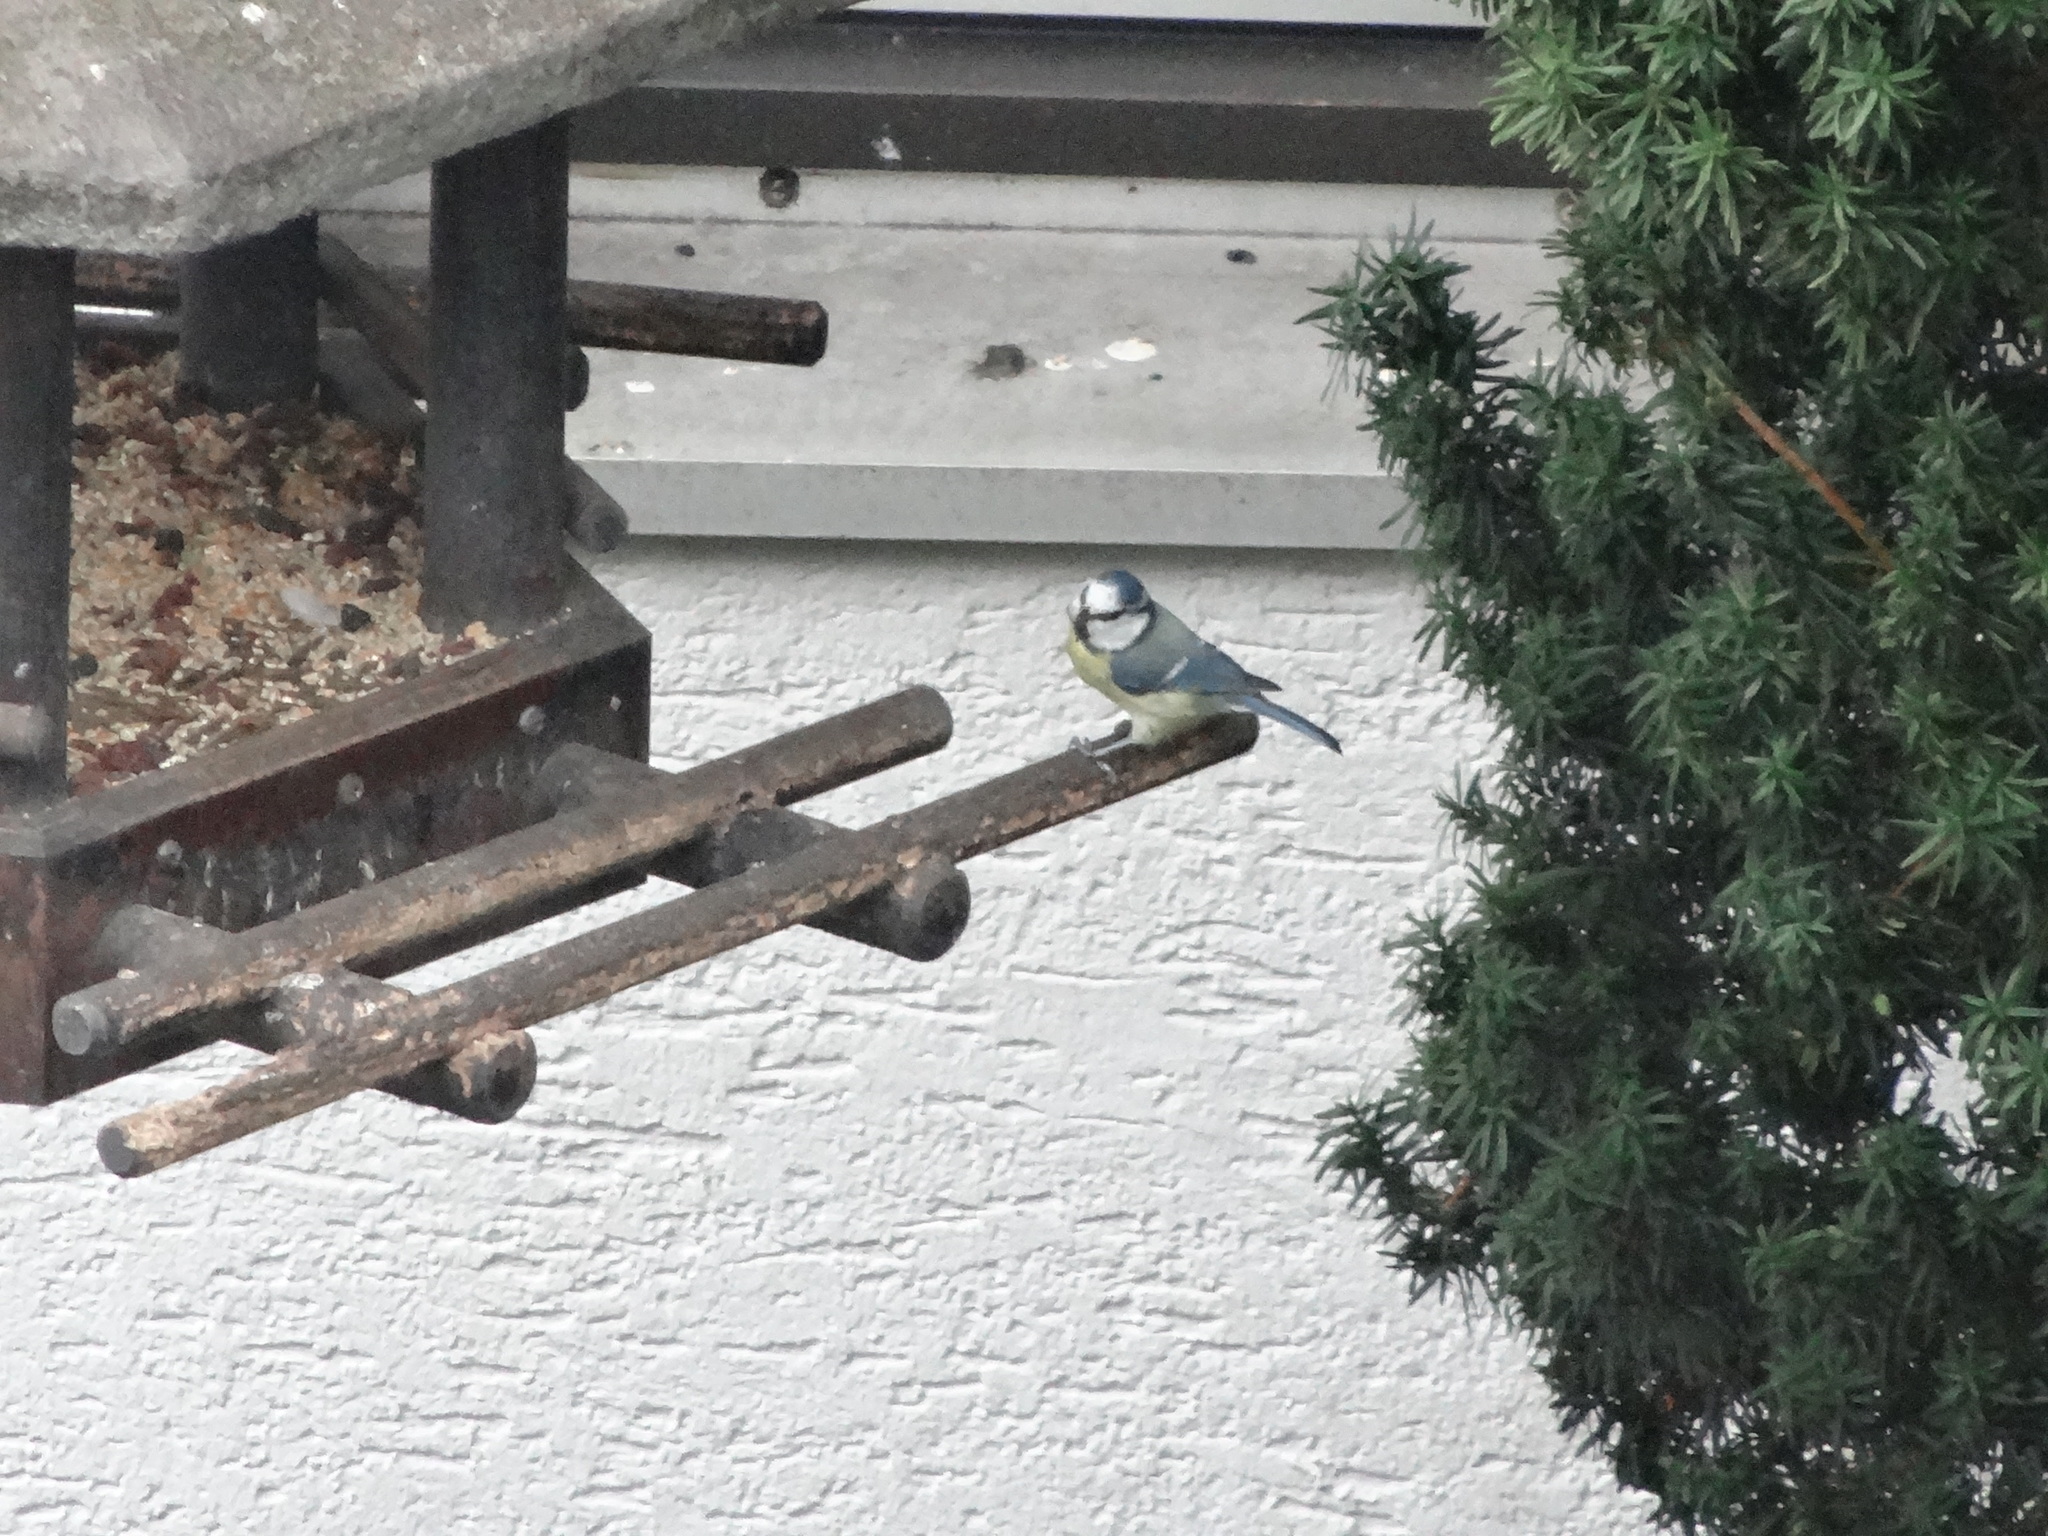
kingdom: Animalia
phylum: Chordata
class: Aves
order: Passeriformes
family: Paridae
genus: Parus
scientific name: Parus major
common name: Great tit
